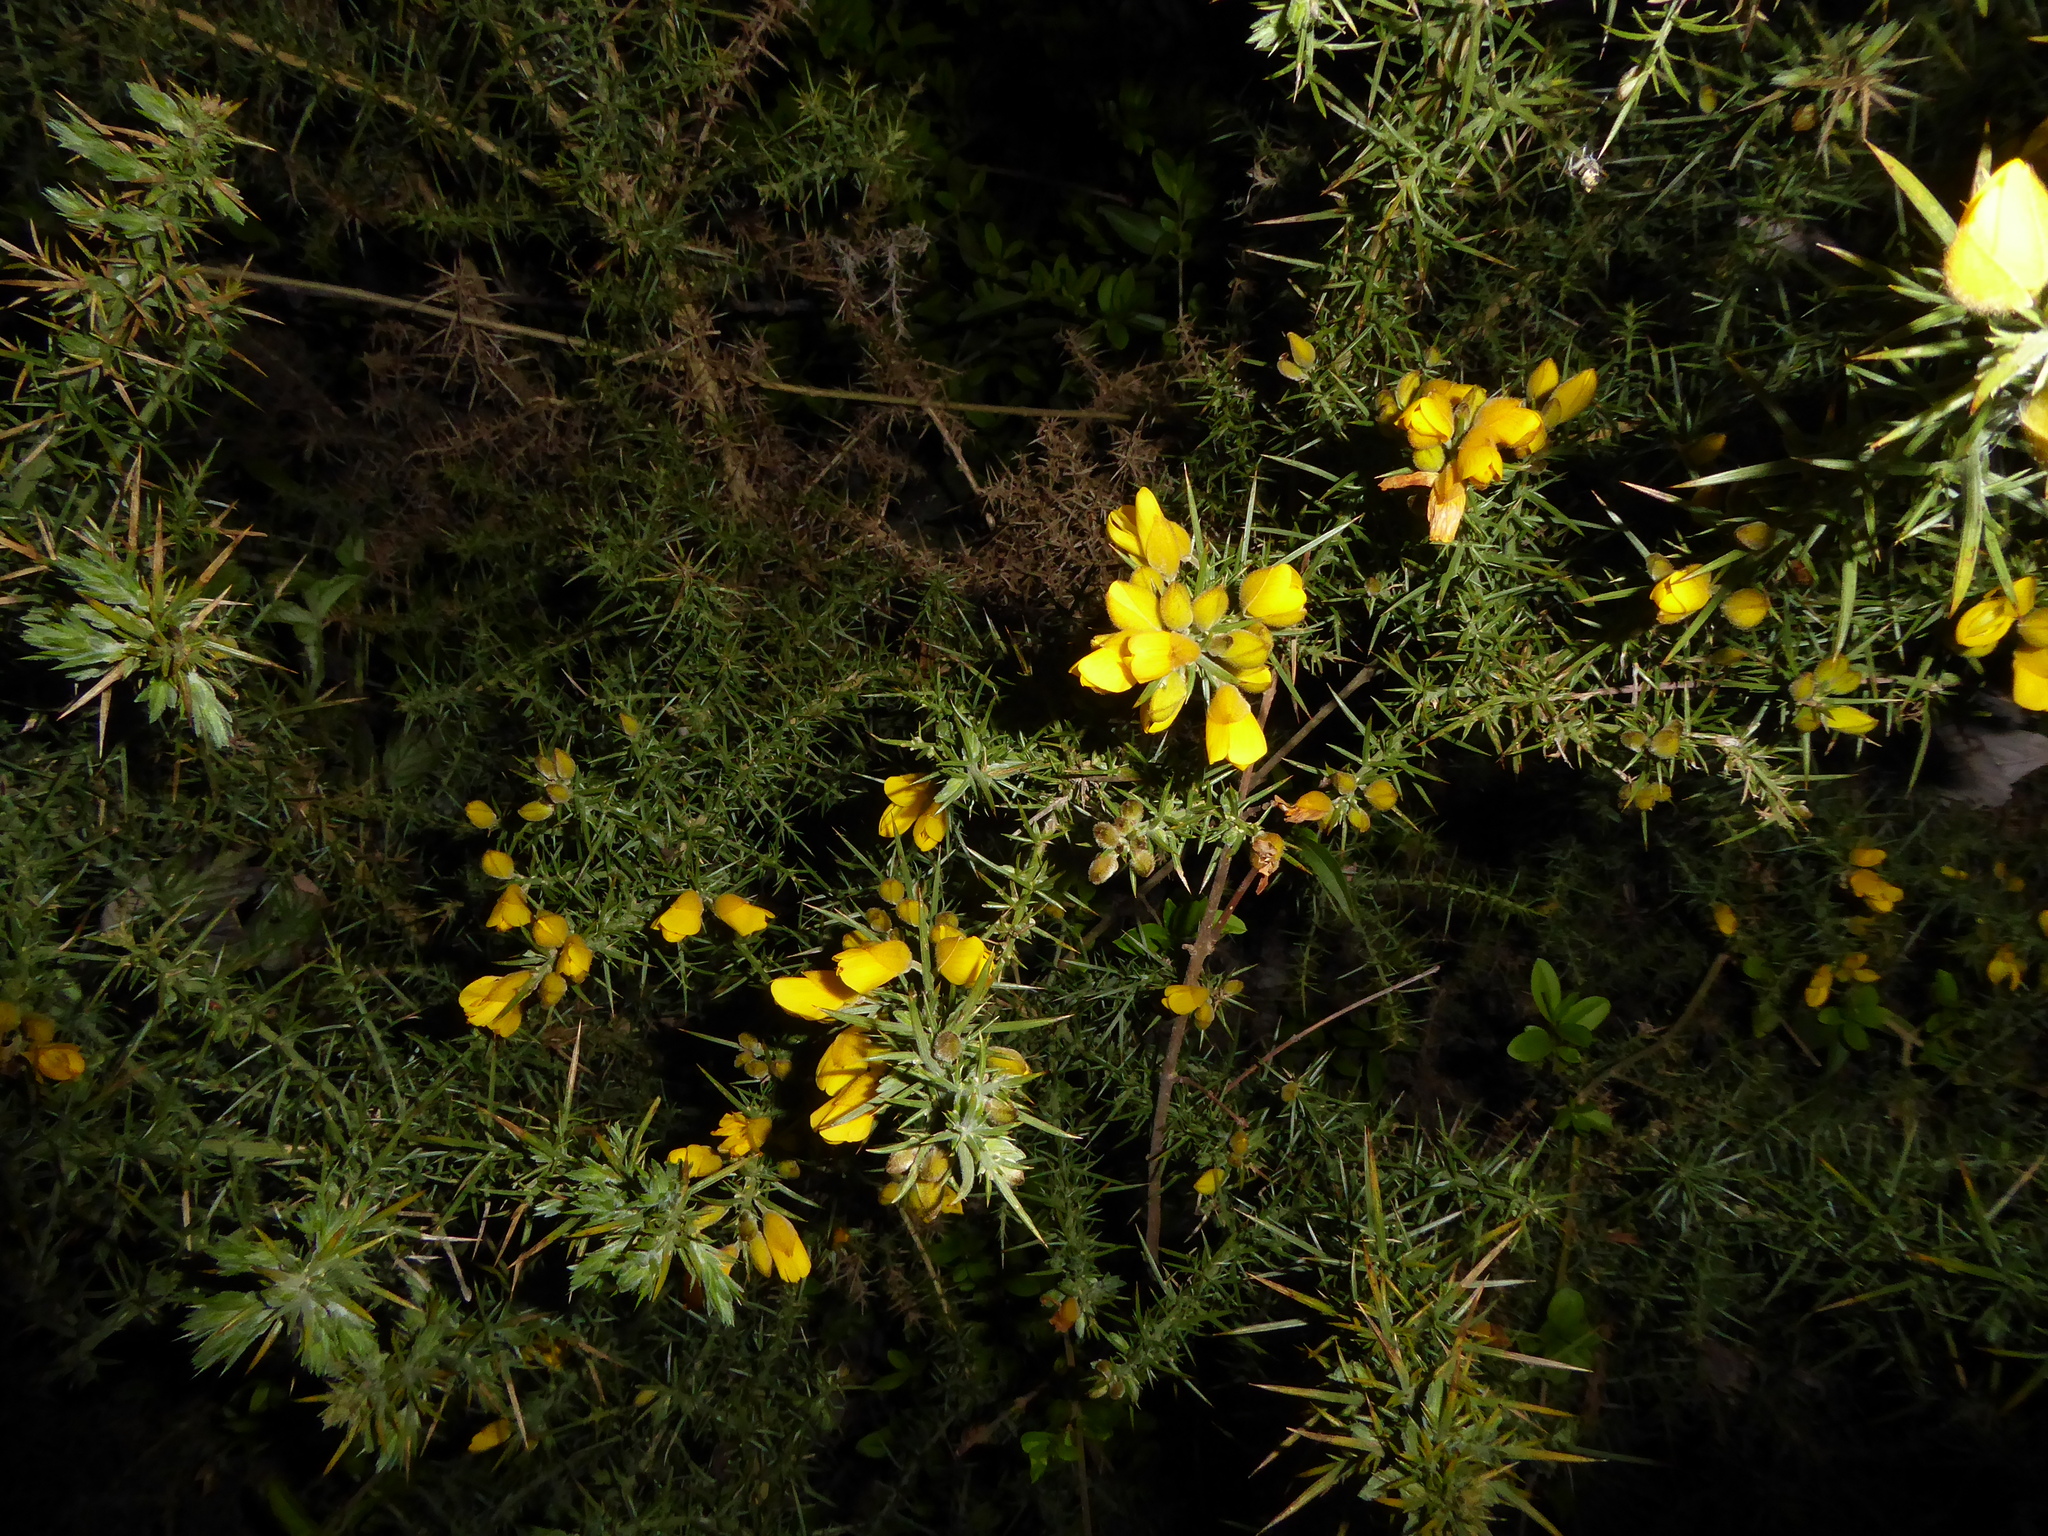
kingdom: Plantae
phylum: Tracheophyta
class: Magnoliopsida
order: Fabales
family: Fabaceae
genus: Ulex
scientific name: Ulex europaeus
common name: Common gorse
